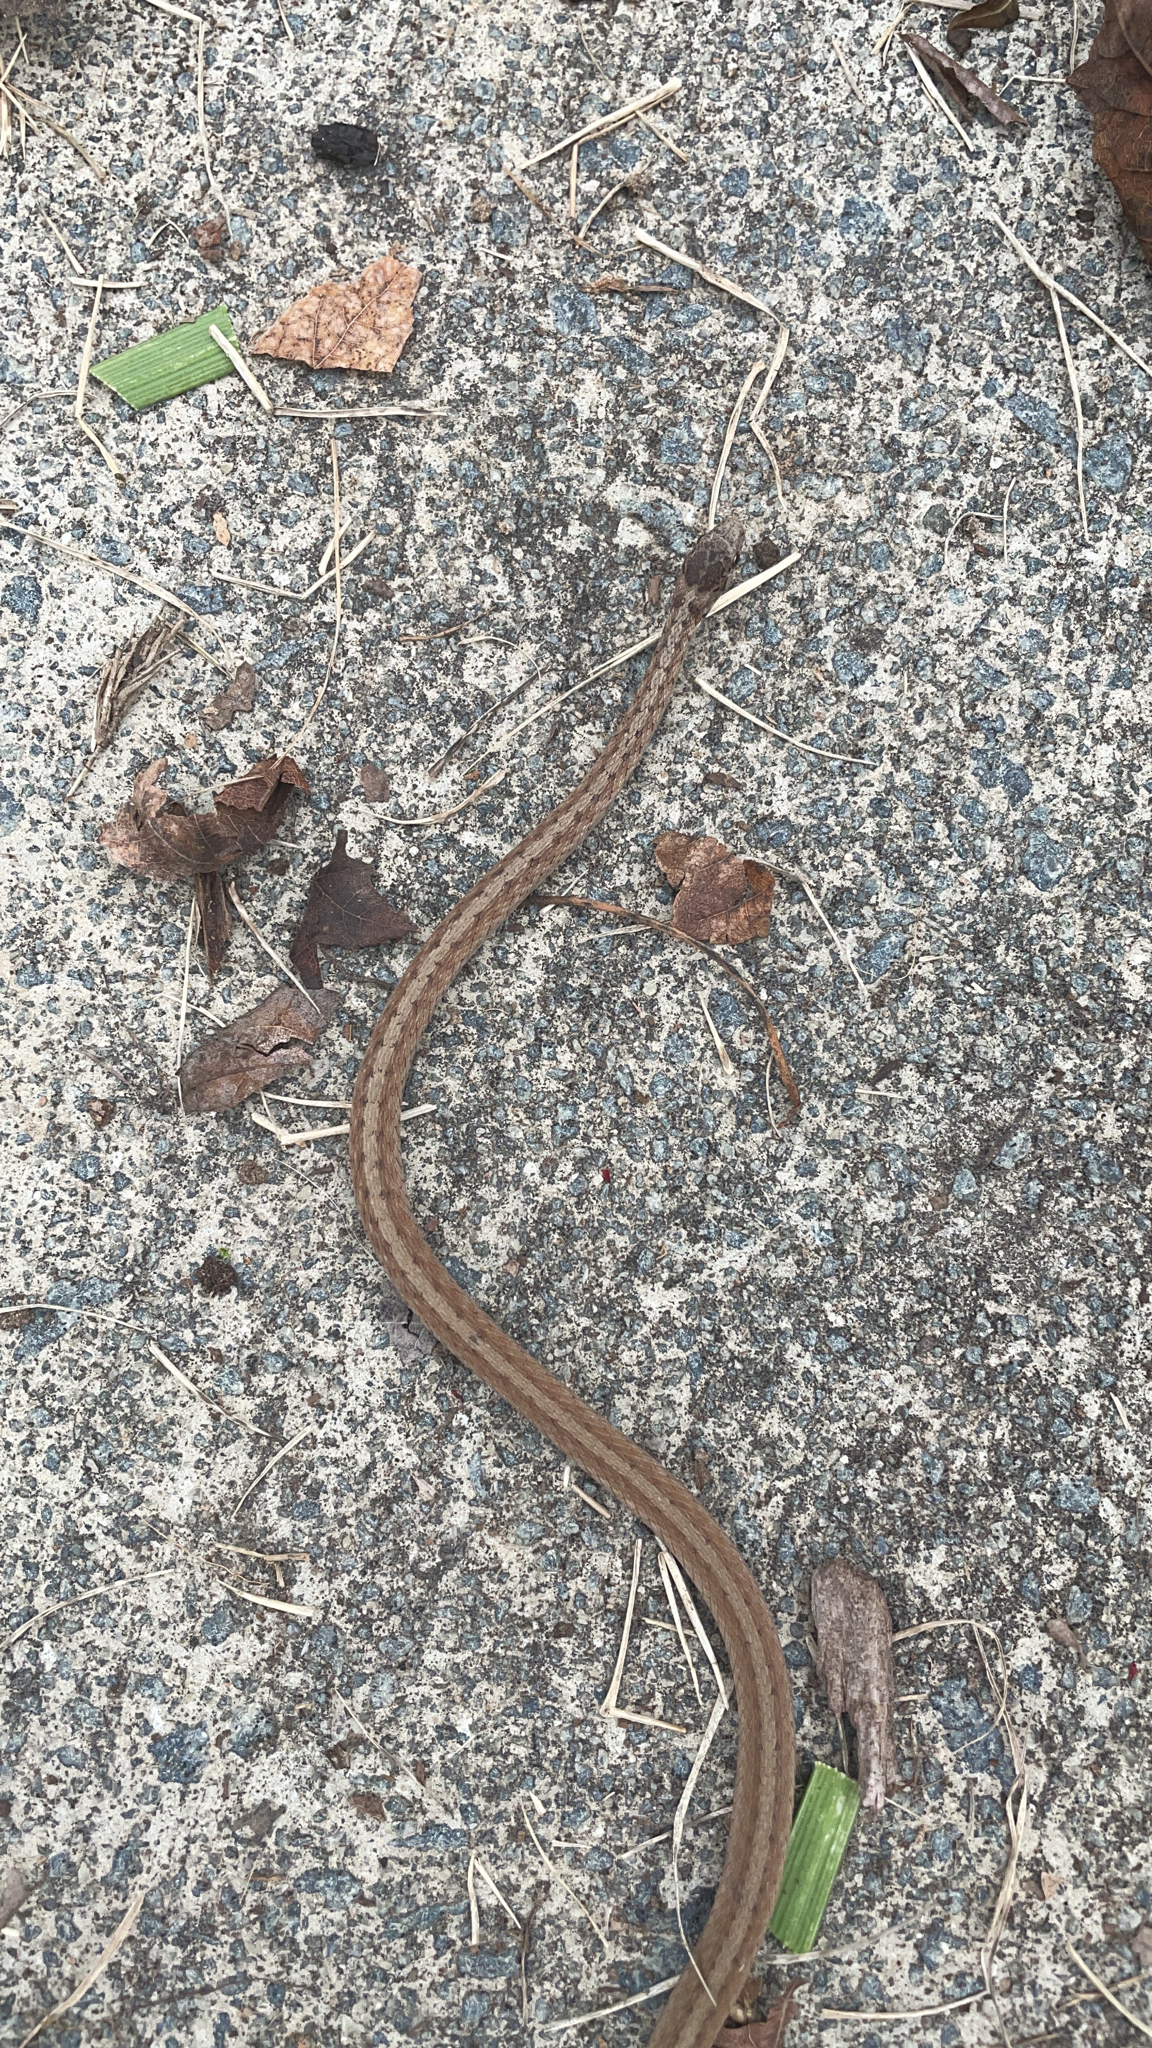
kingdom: Animalia
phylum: Chordata
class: Squamata
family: Colubridae
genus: Storeria
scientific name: Storeria dekayi
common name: (dekay’s) brown snake
